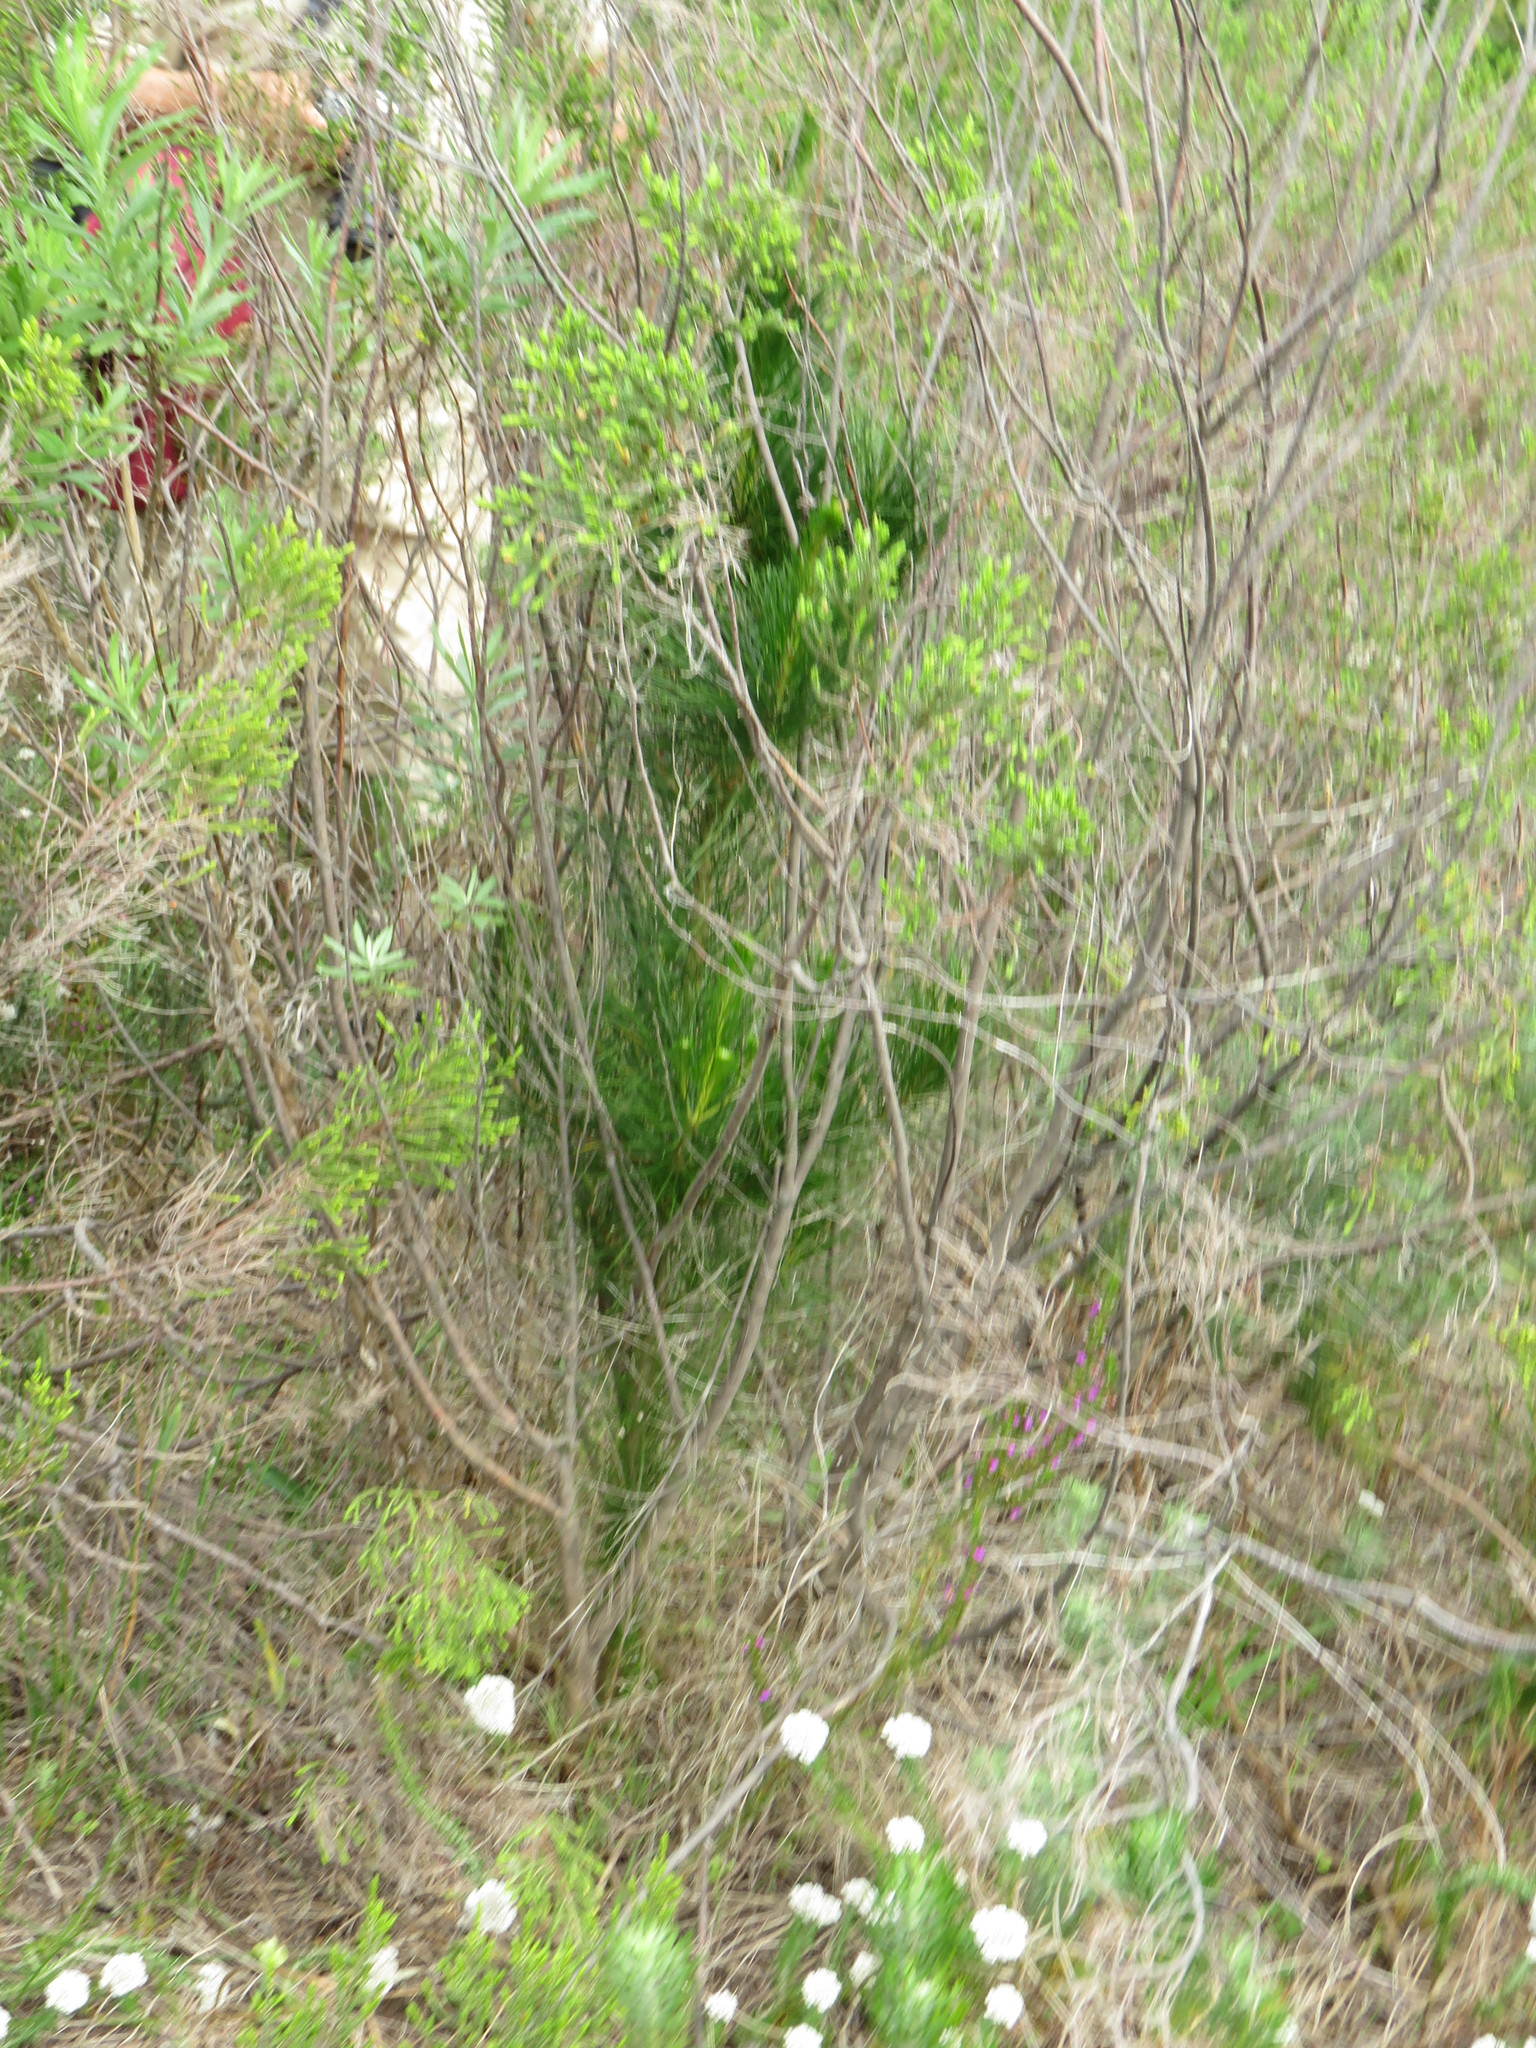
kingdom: Plantae
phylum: Tracheophyta
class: Pinopsida
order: Pinales
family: Pinaceae
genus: Pinus
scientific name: Pinus radiata
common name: Monterey pine
